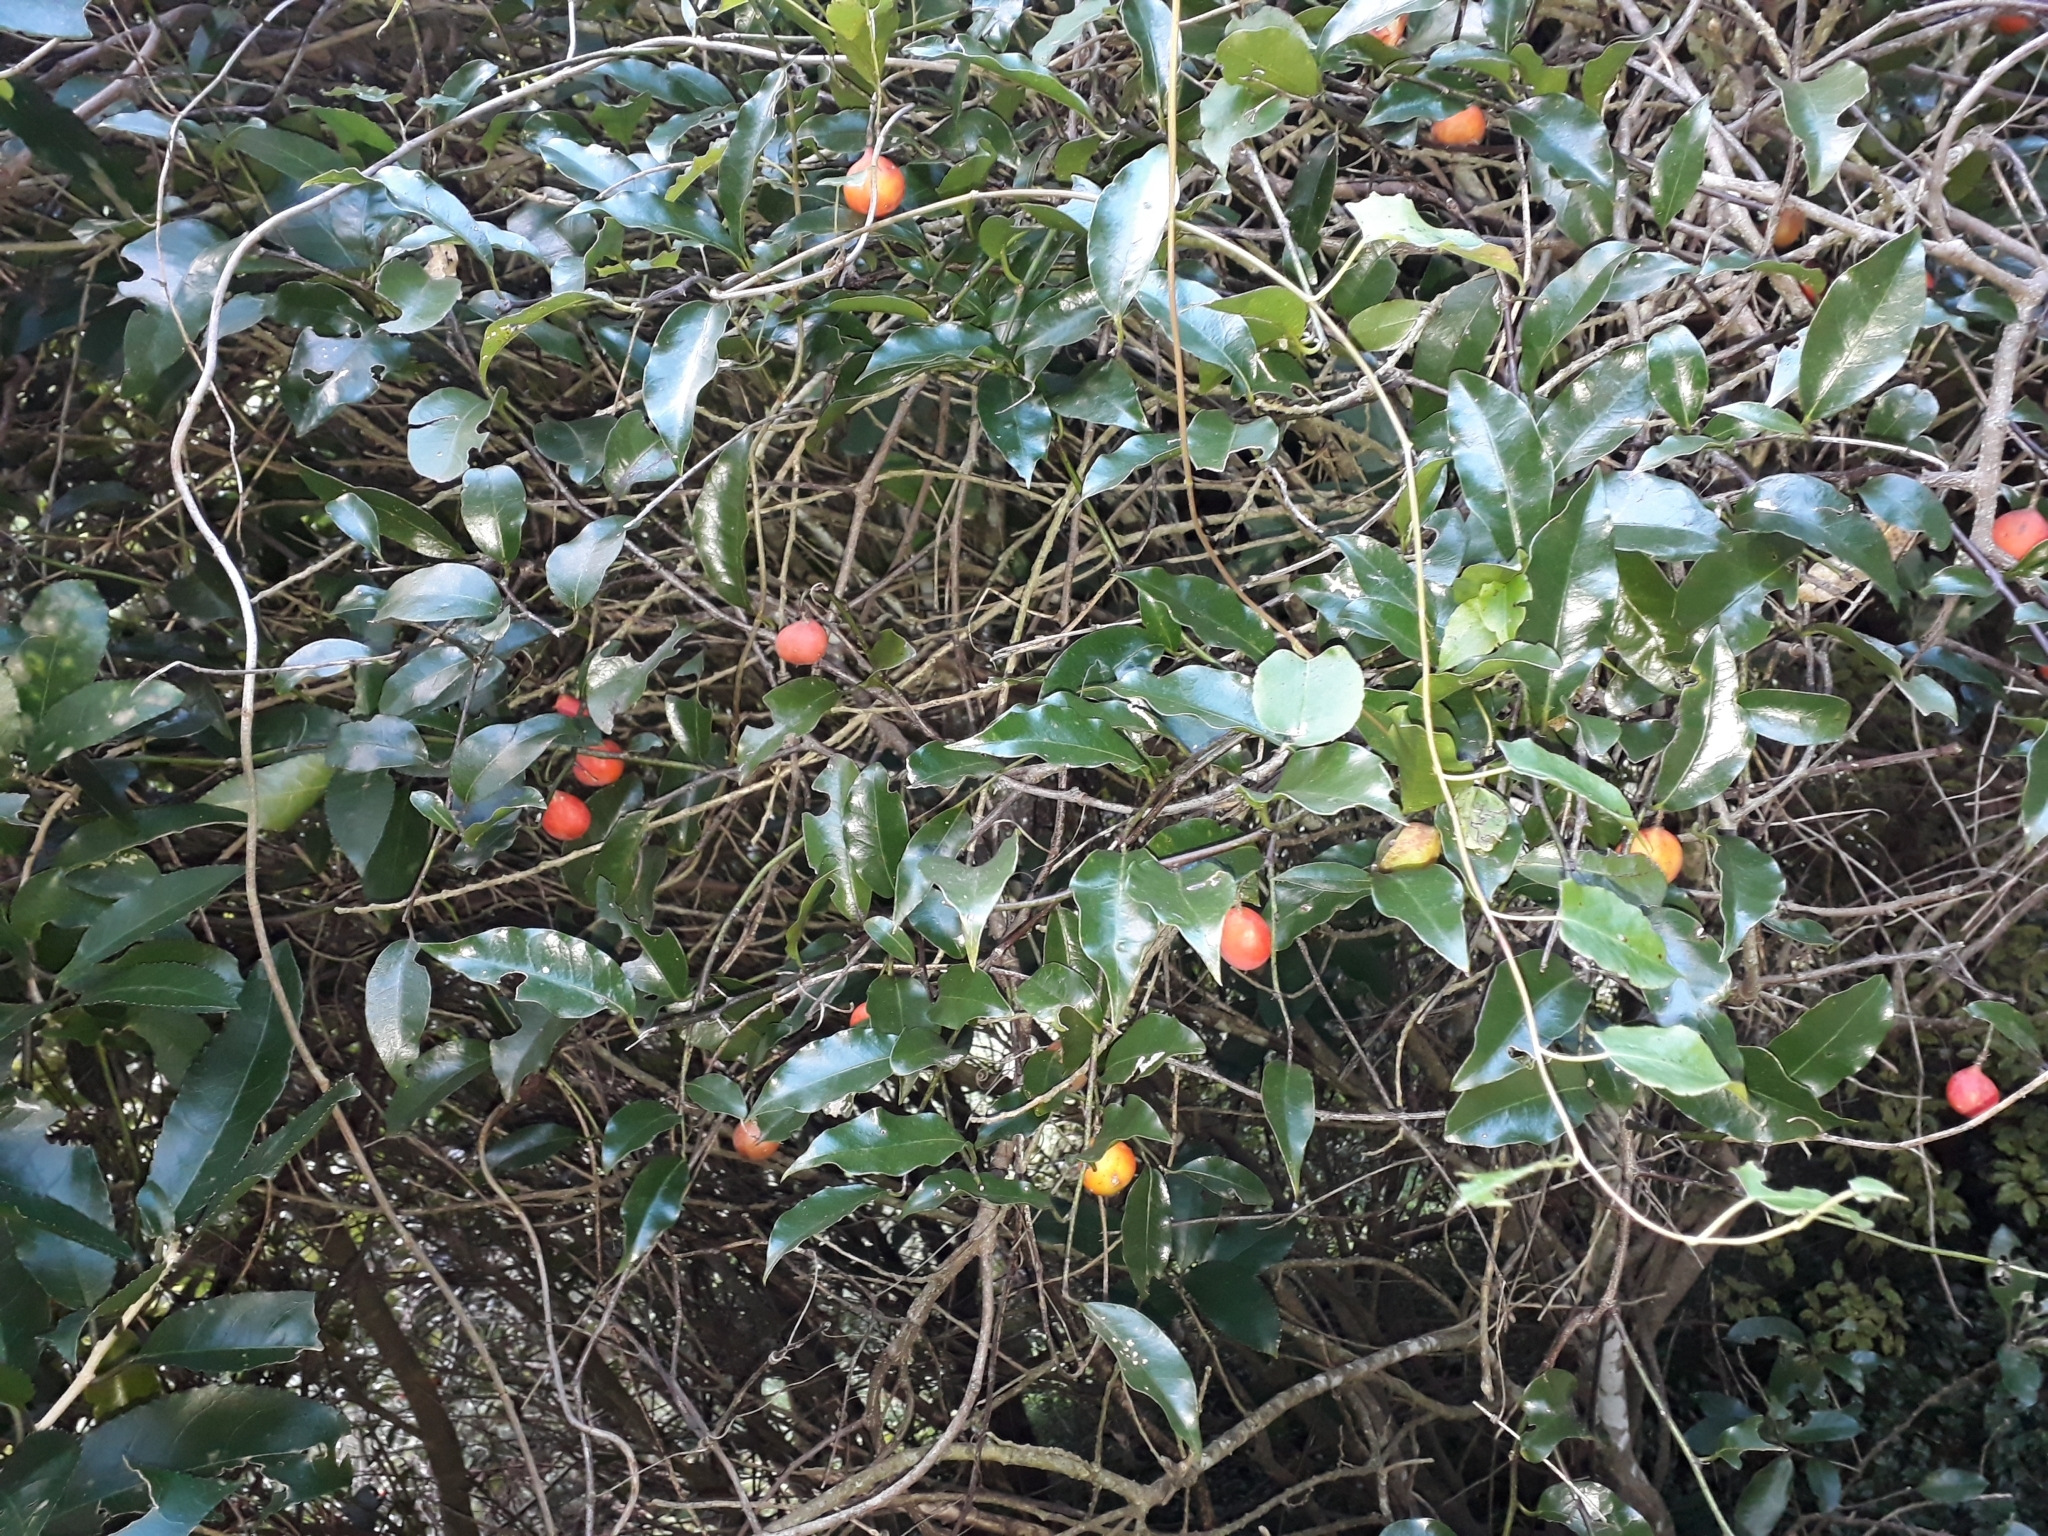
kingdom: Plantae
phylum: Tracheophyta
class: Magnoliopsida
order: Malpighiales
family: Passifloraceae
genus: Passiflora
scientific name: Passiflora tetrandra
